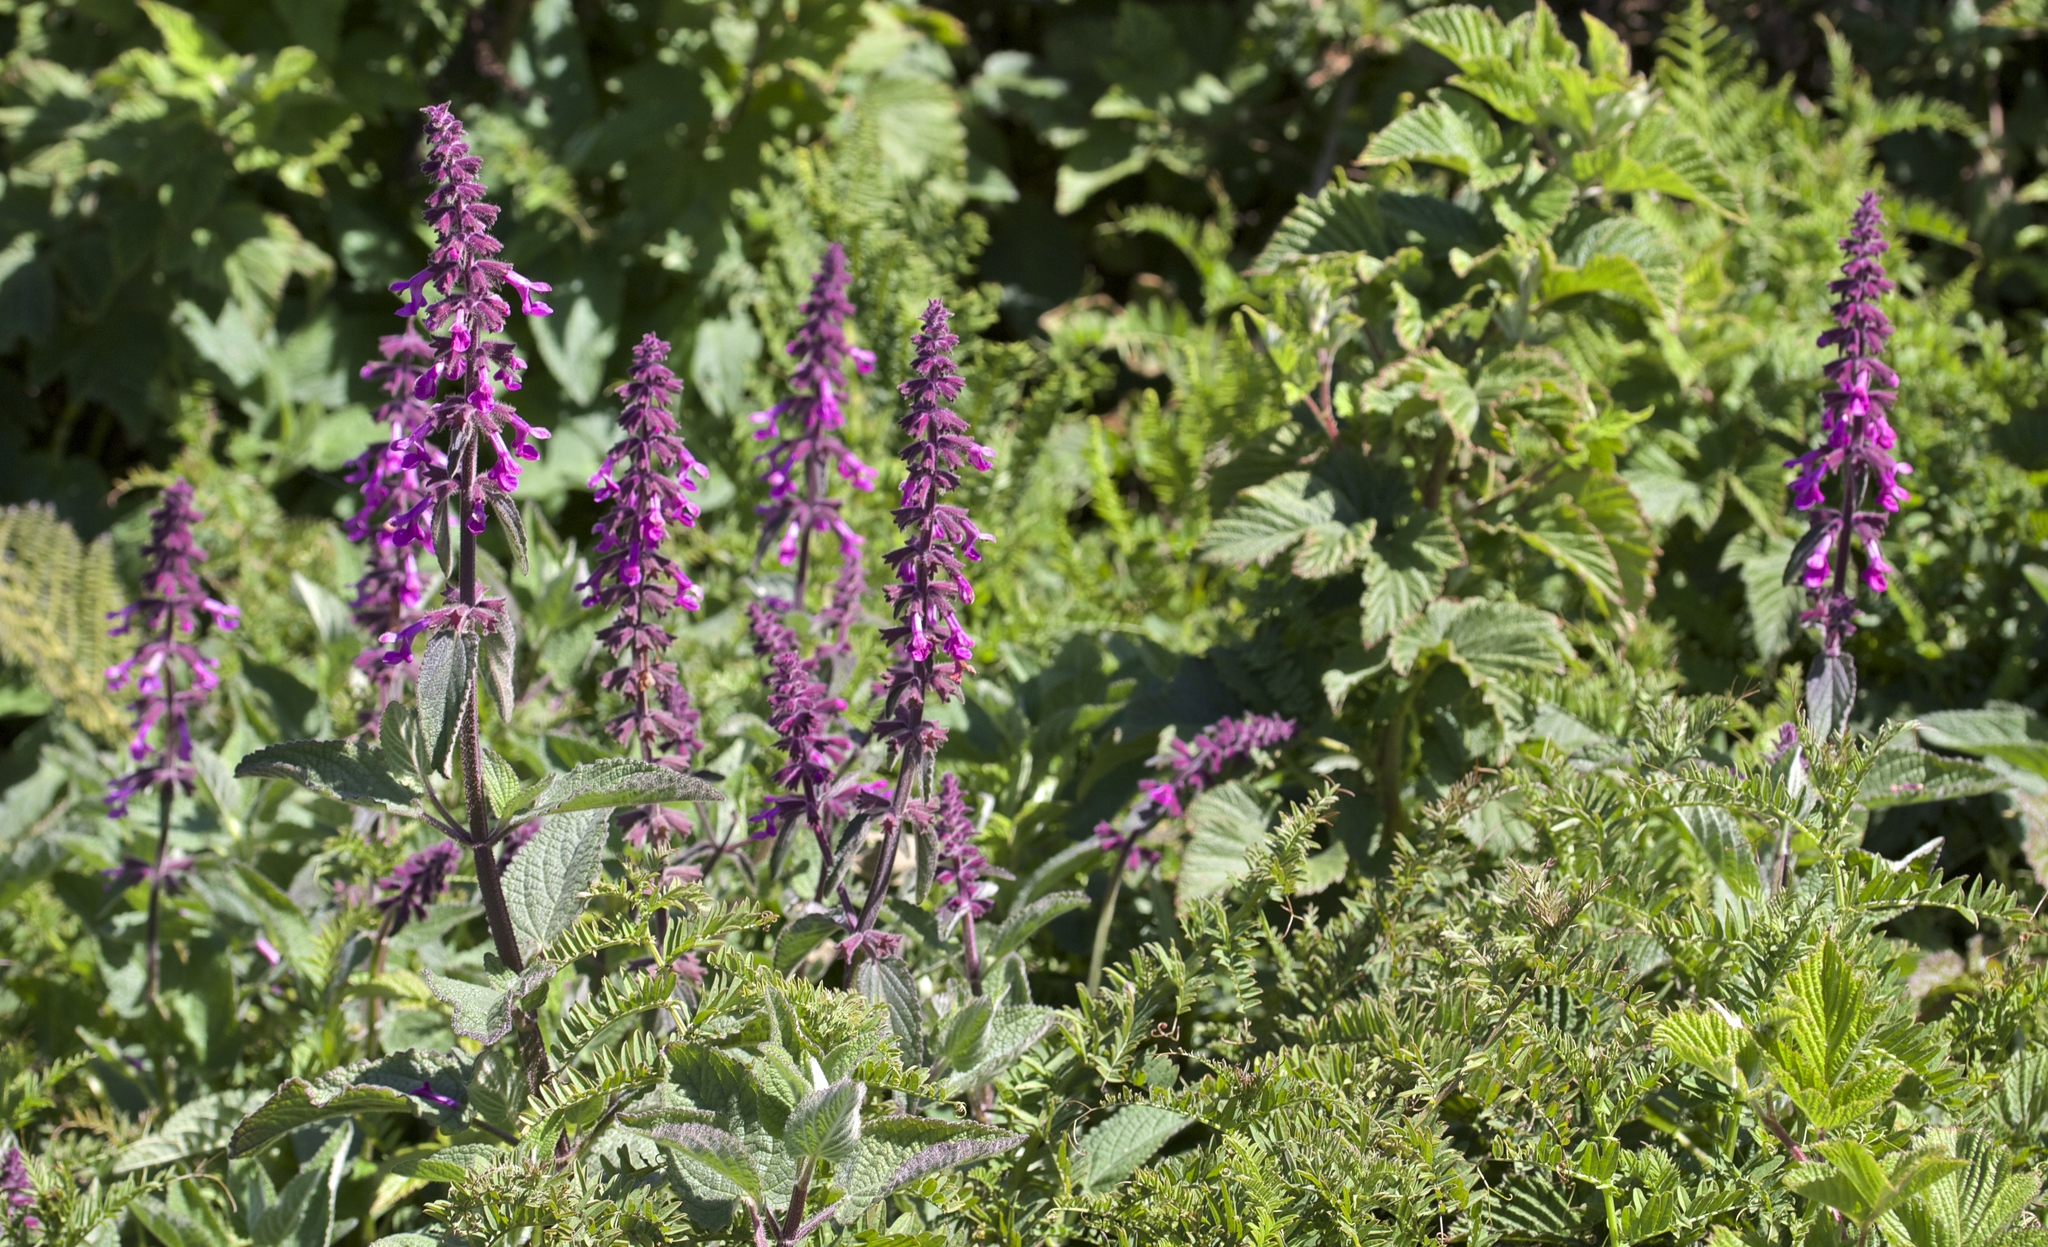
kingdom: Plantae
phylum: Tracheophyta
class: Magnoliopsida
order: Lamiales
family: Lamiaceae
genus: Stachys
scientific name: Stachys chamissonis
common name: Coastal hedge-nettle
